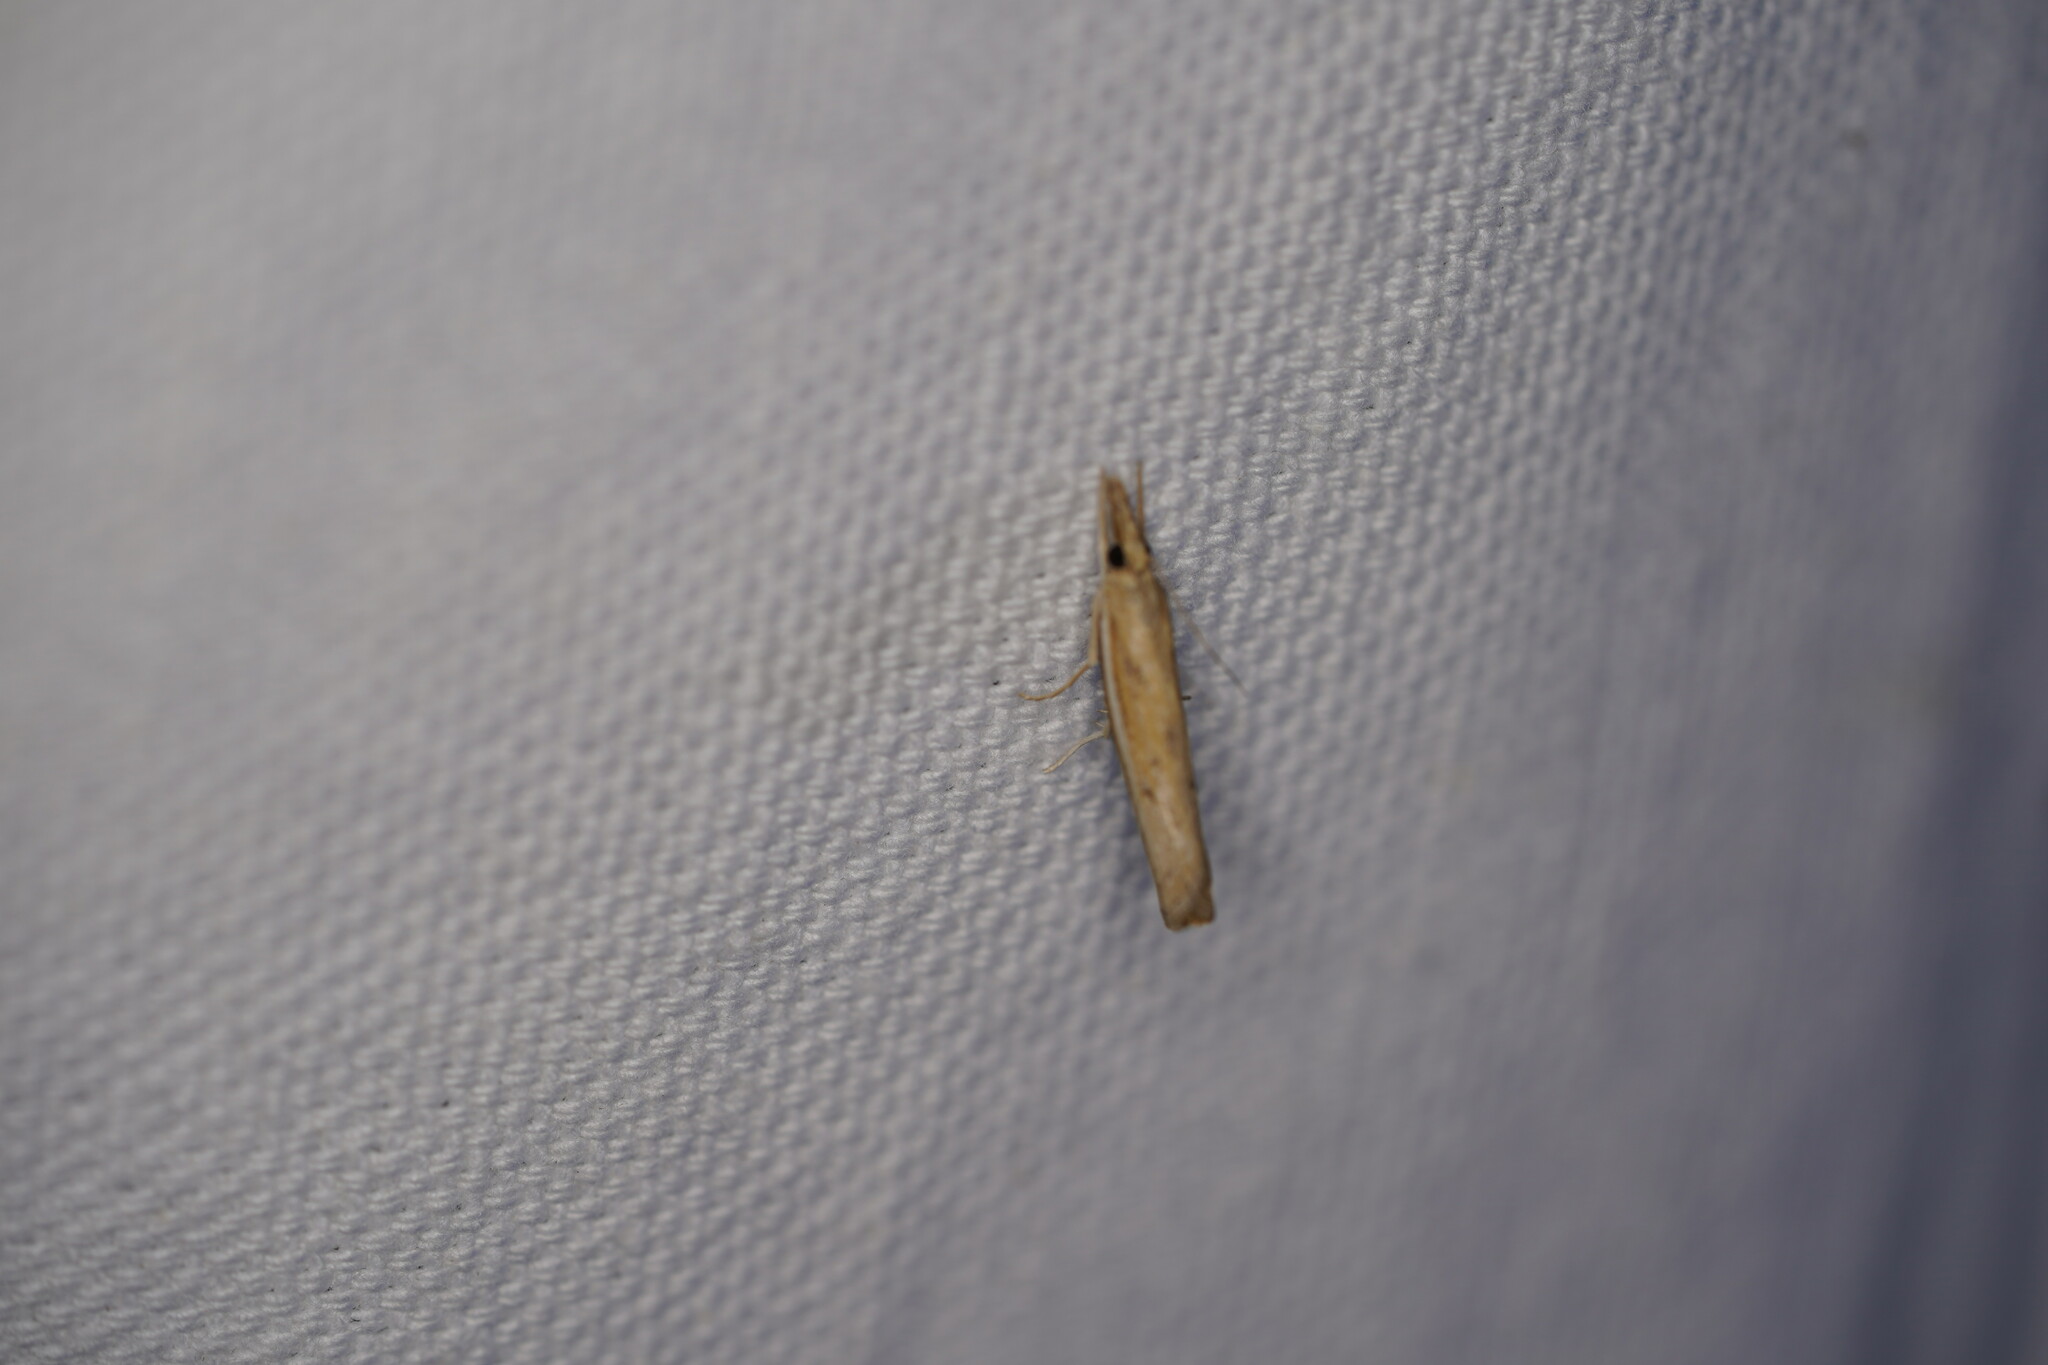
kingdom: Animalia
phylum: Arthropoda
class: Insecta
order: Lepidoptera
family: Crambidae
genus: Fissicrambus
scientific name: Fissicrambus fissiradiellus
